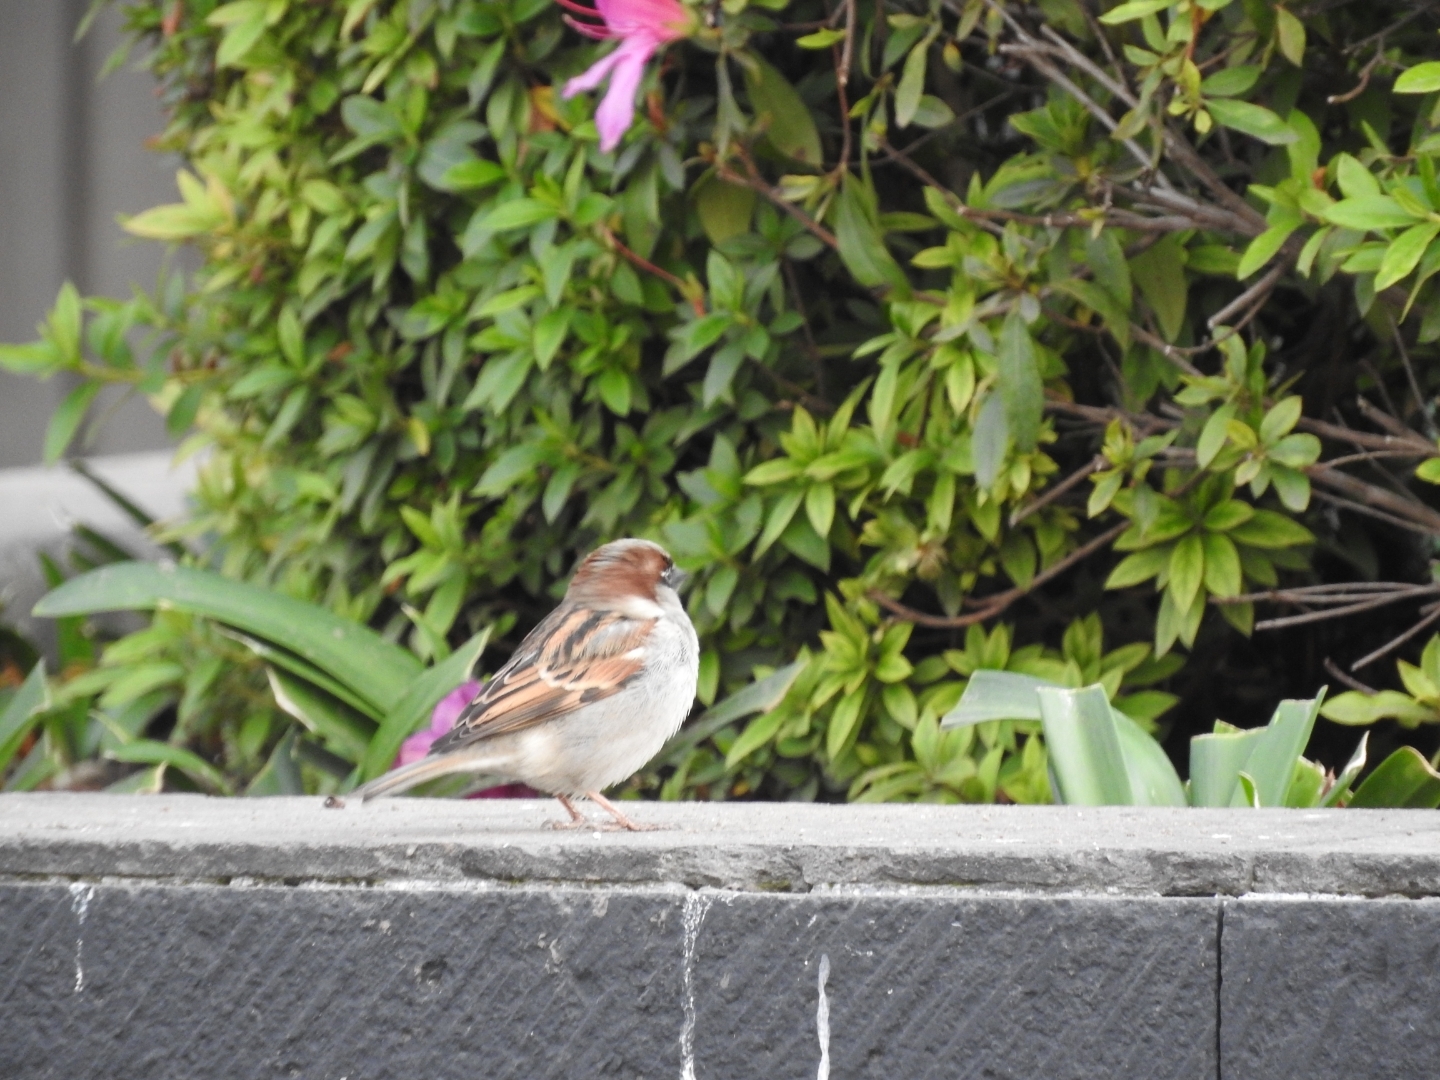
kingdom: Animalia
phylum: Chordata
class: Aves
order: Passeriformes
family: Passeridae
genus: Passer
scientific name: Passer domesticus
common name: House sparrow
